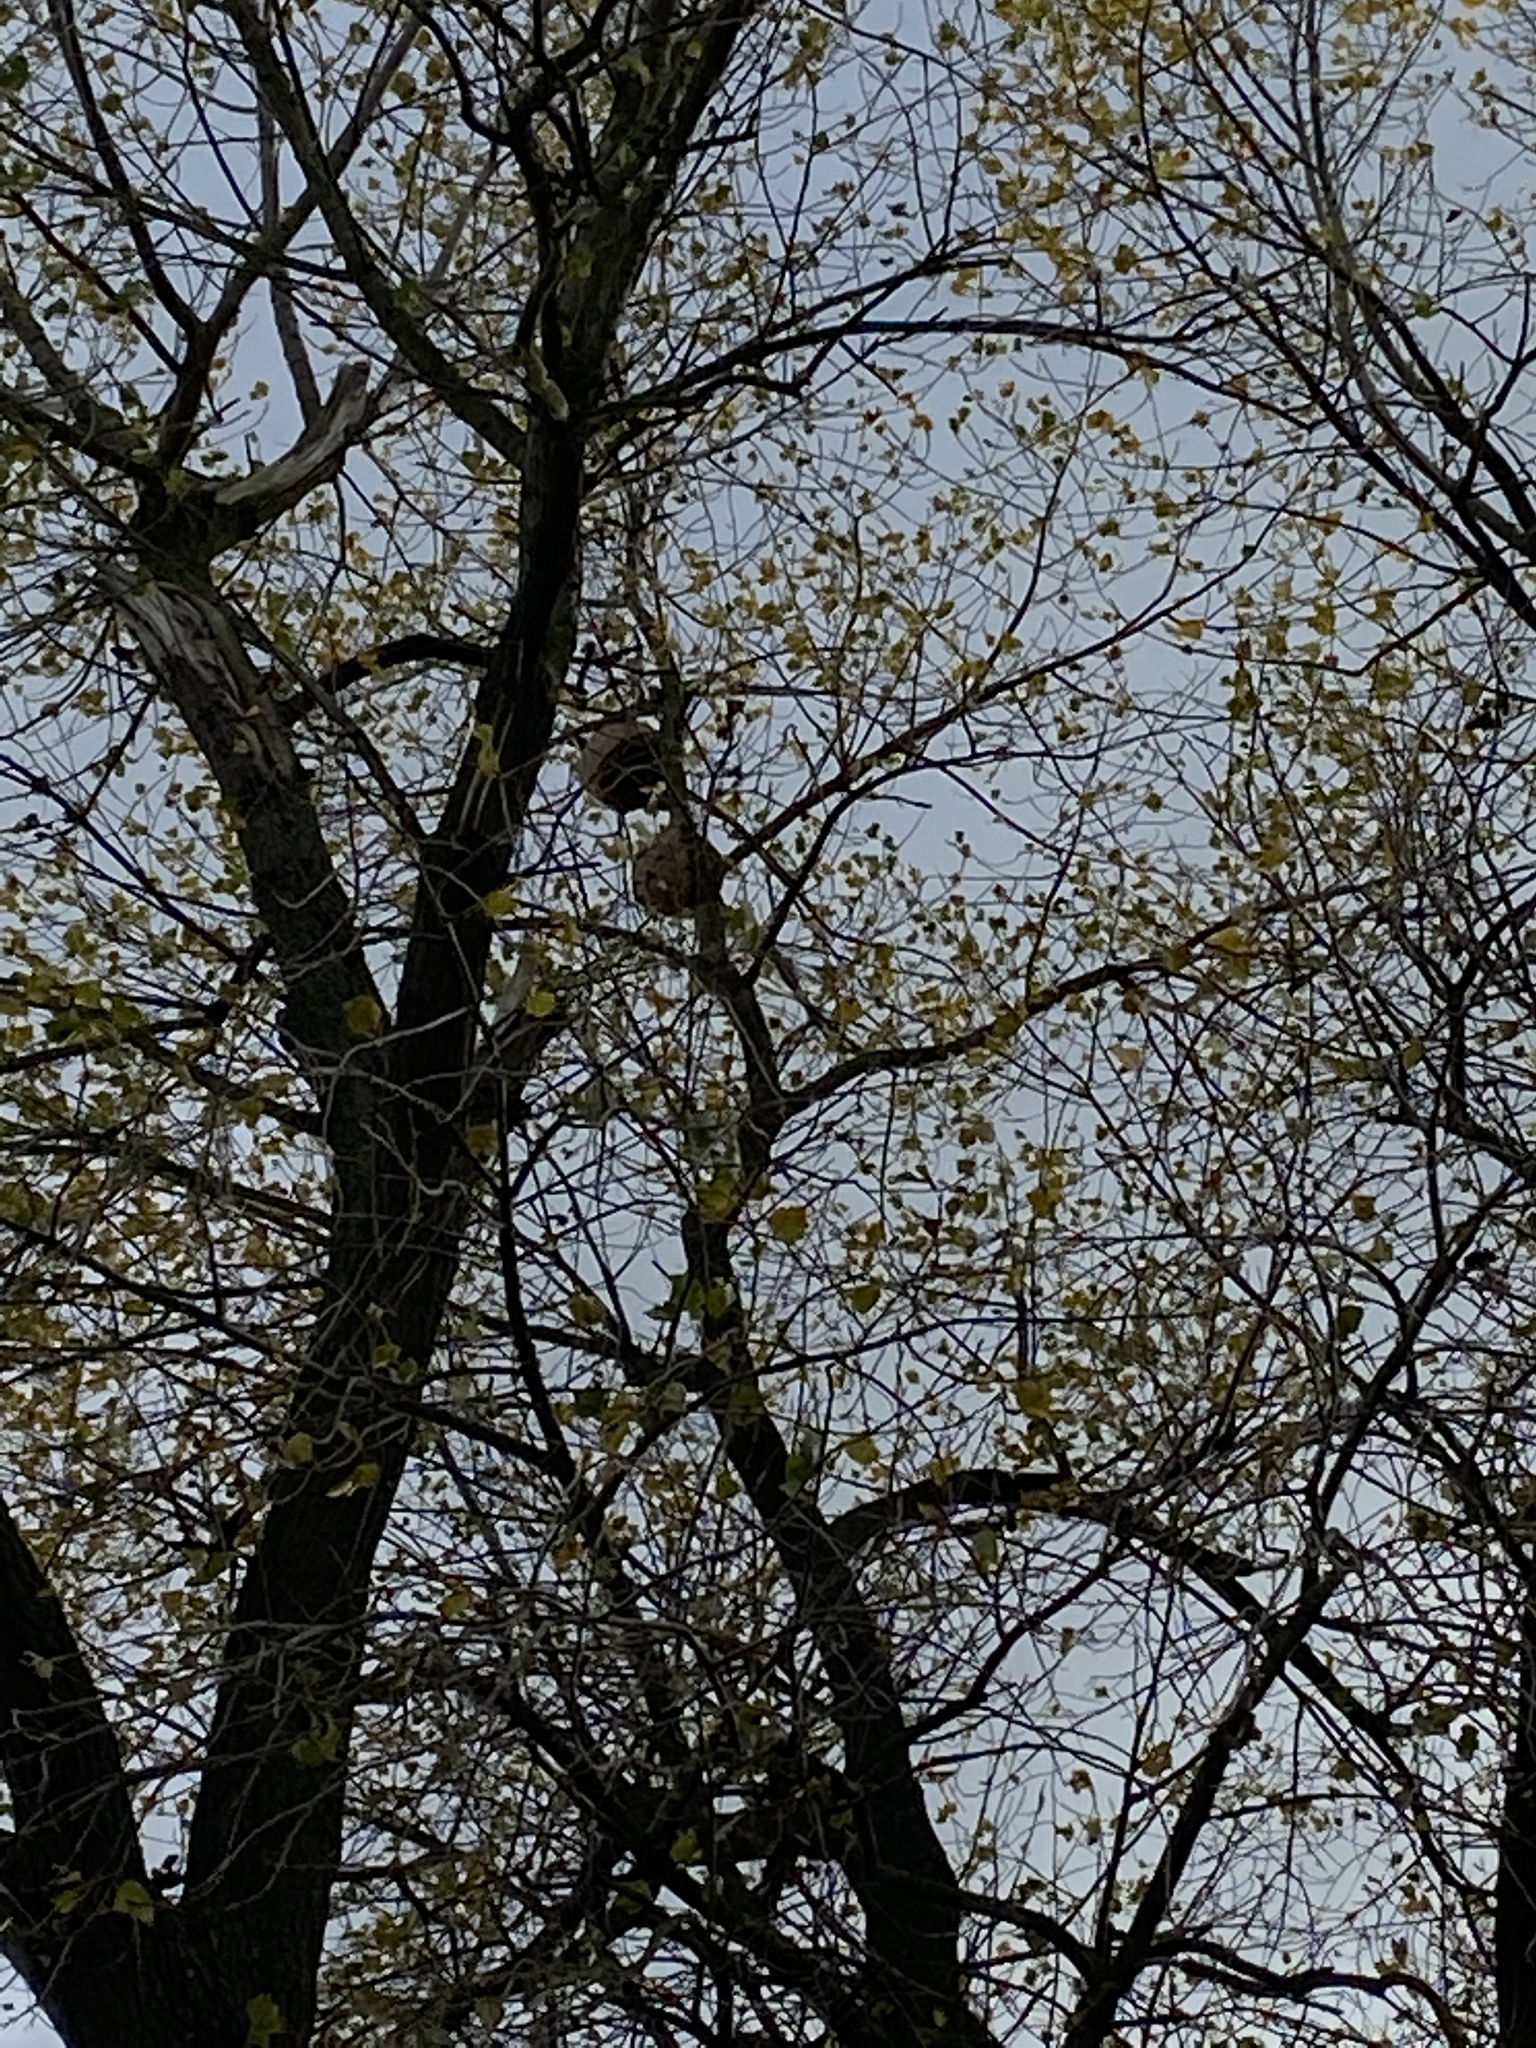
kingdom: Animalia
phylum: Arthropoda
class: Insecta
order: Hymenoptera
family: Vespidae
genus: Vespa
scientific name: Vespa velutina
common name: Asian hornet
